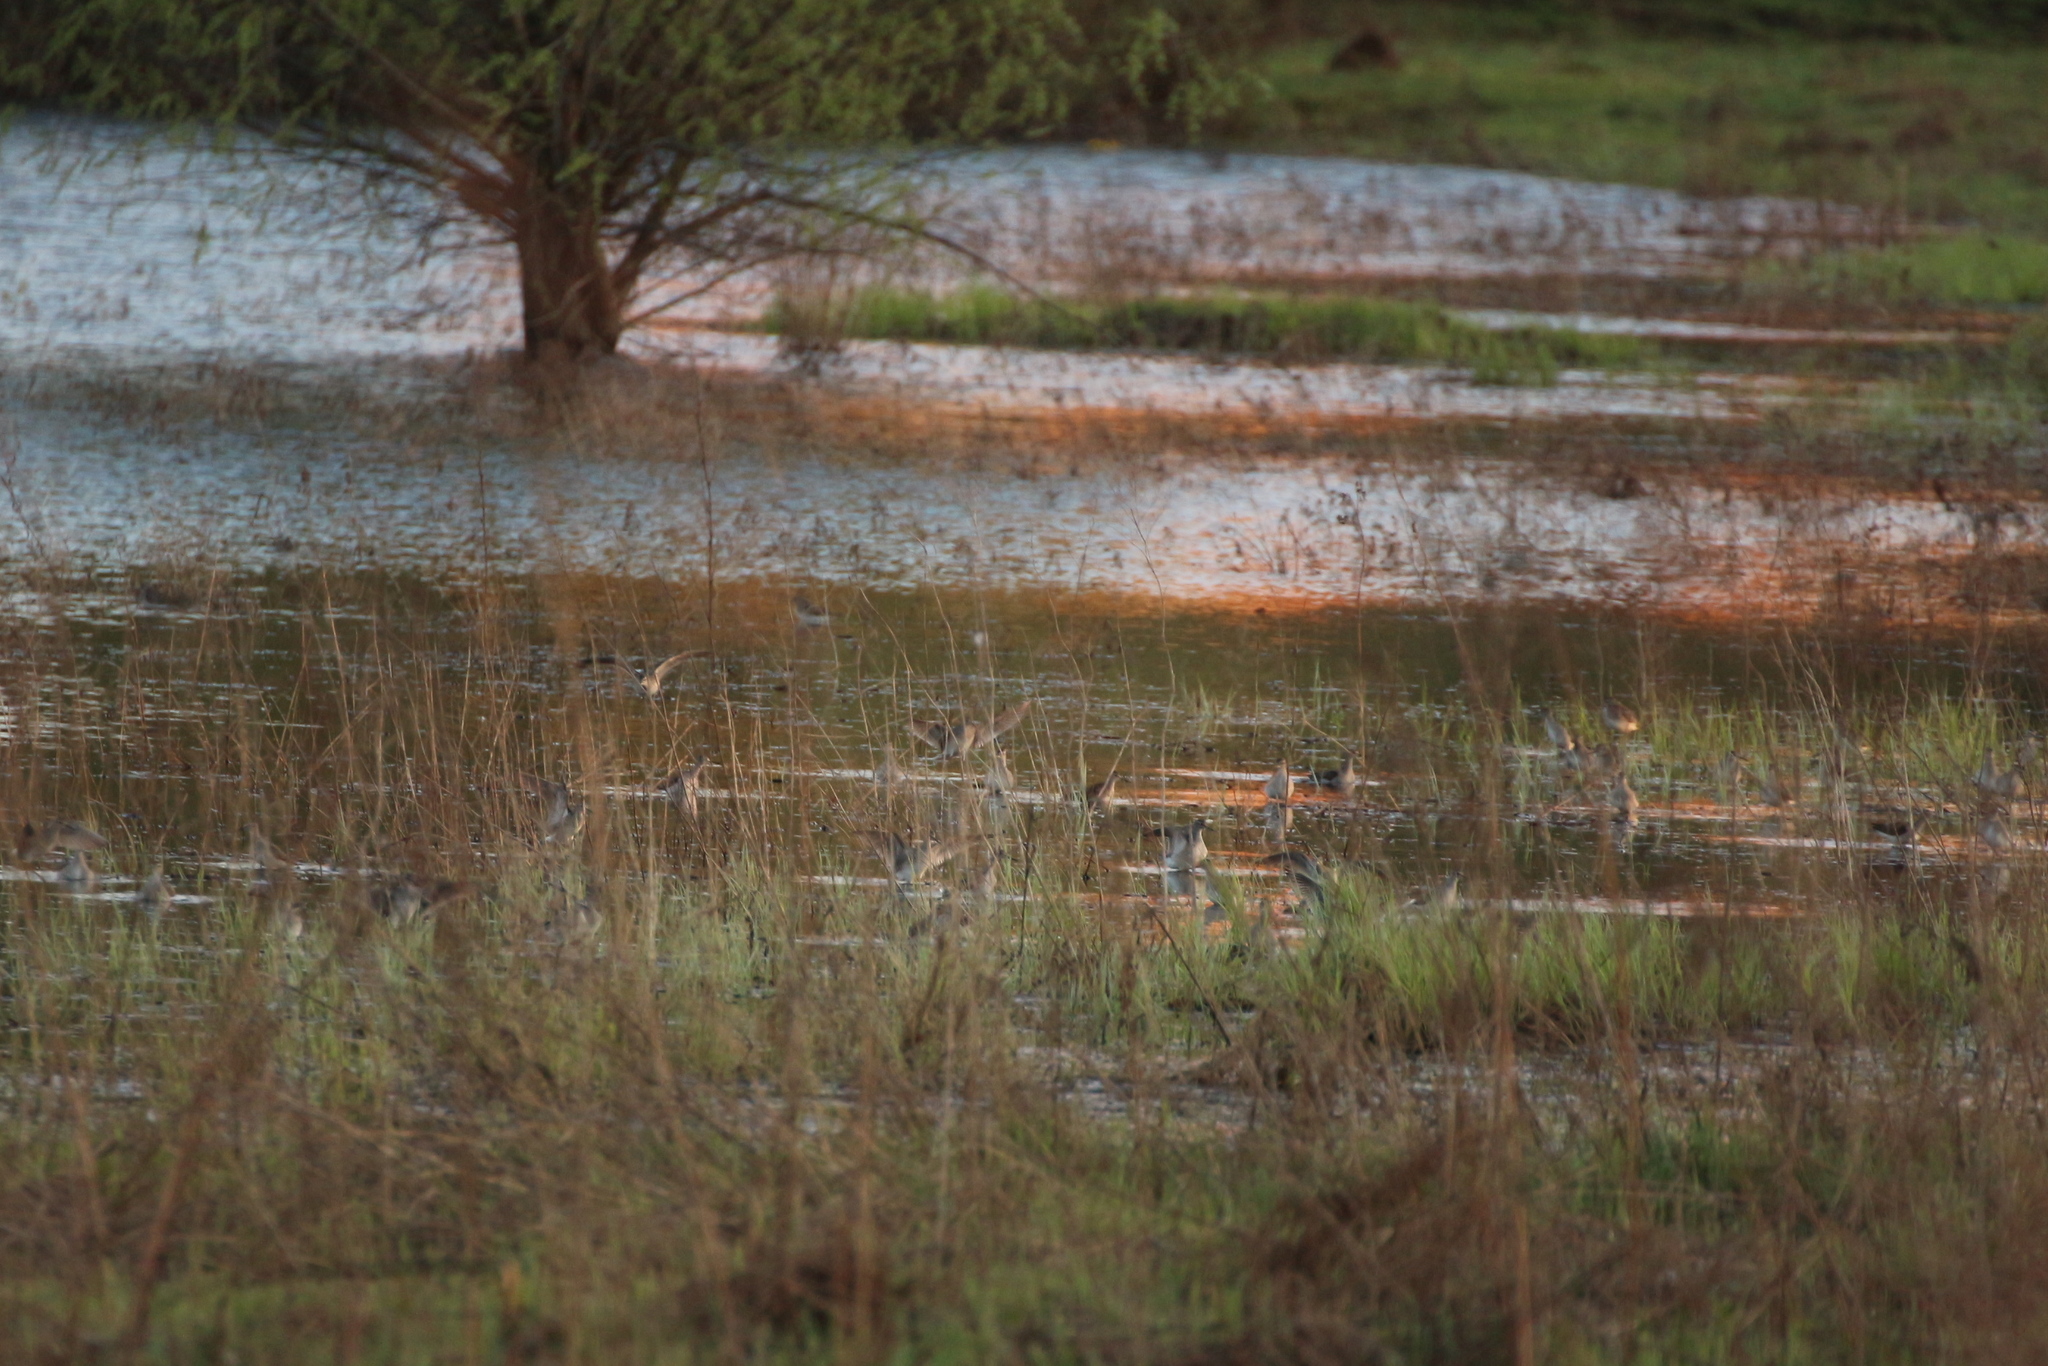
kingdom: Animalia
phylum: Chordata
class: Aves
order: Charadriiformes
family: Scolopacidae
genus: Tringa
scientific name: Tringa glareola
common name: Wood sandpiper
